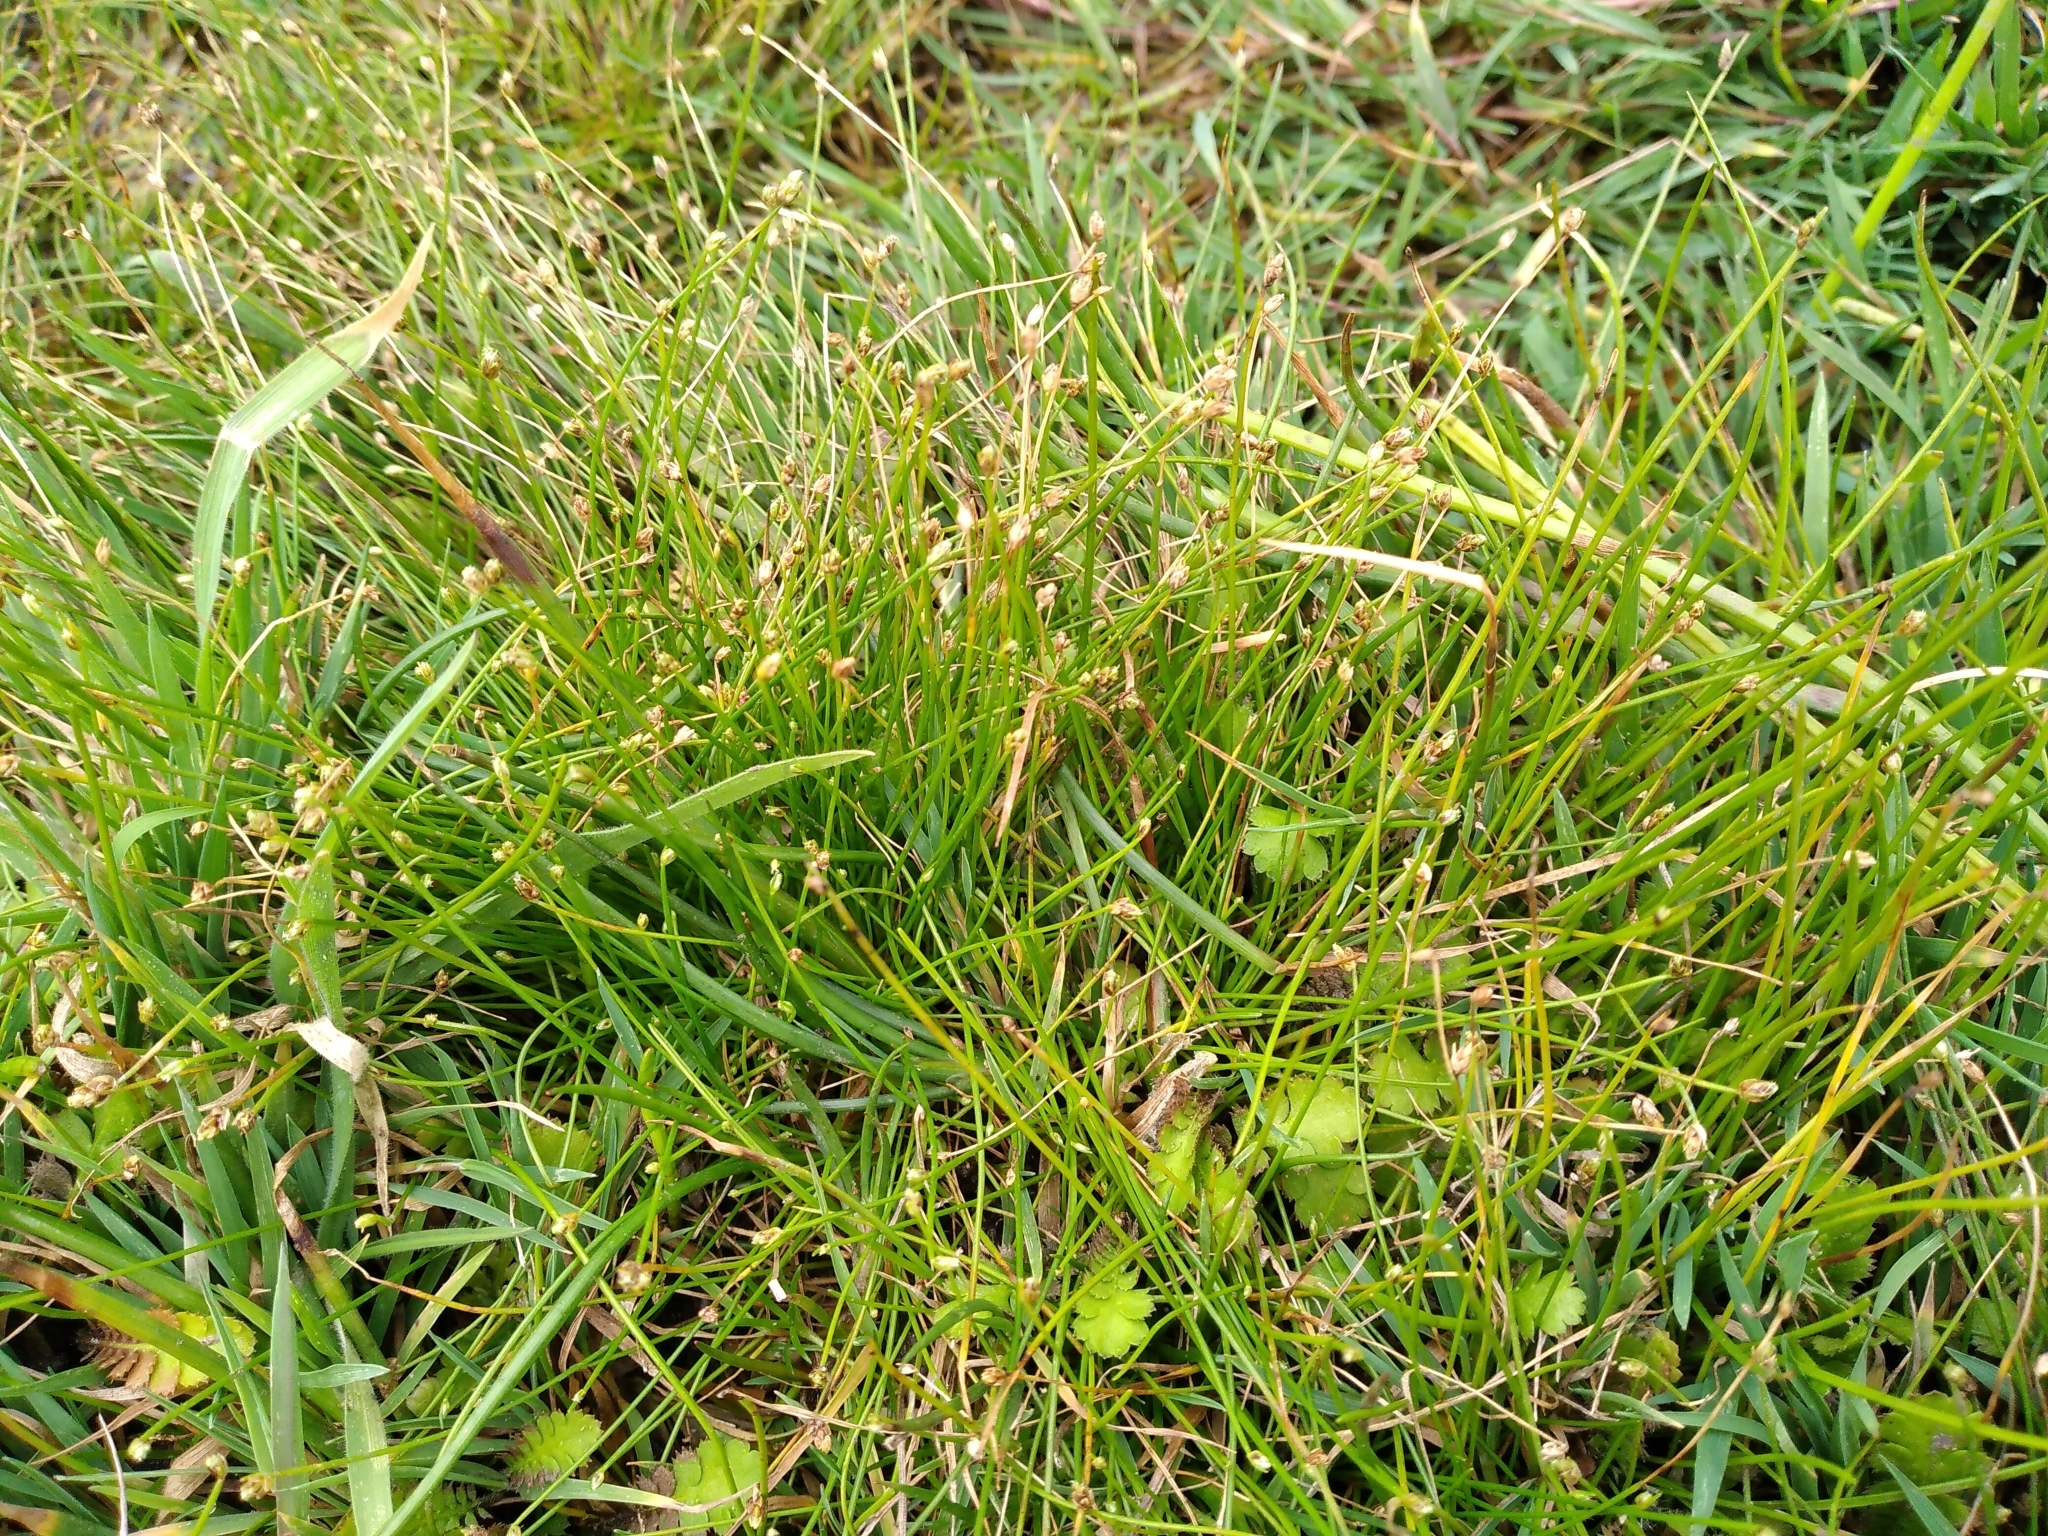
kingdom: Plantae
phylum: Tracheophyta
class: Liliopsida
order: Poales
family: Cyperaceae
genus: Isolepis
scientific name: Isolepis cernua
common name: Slender club-rush
